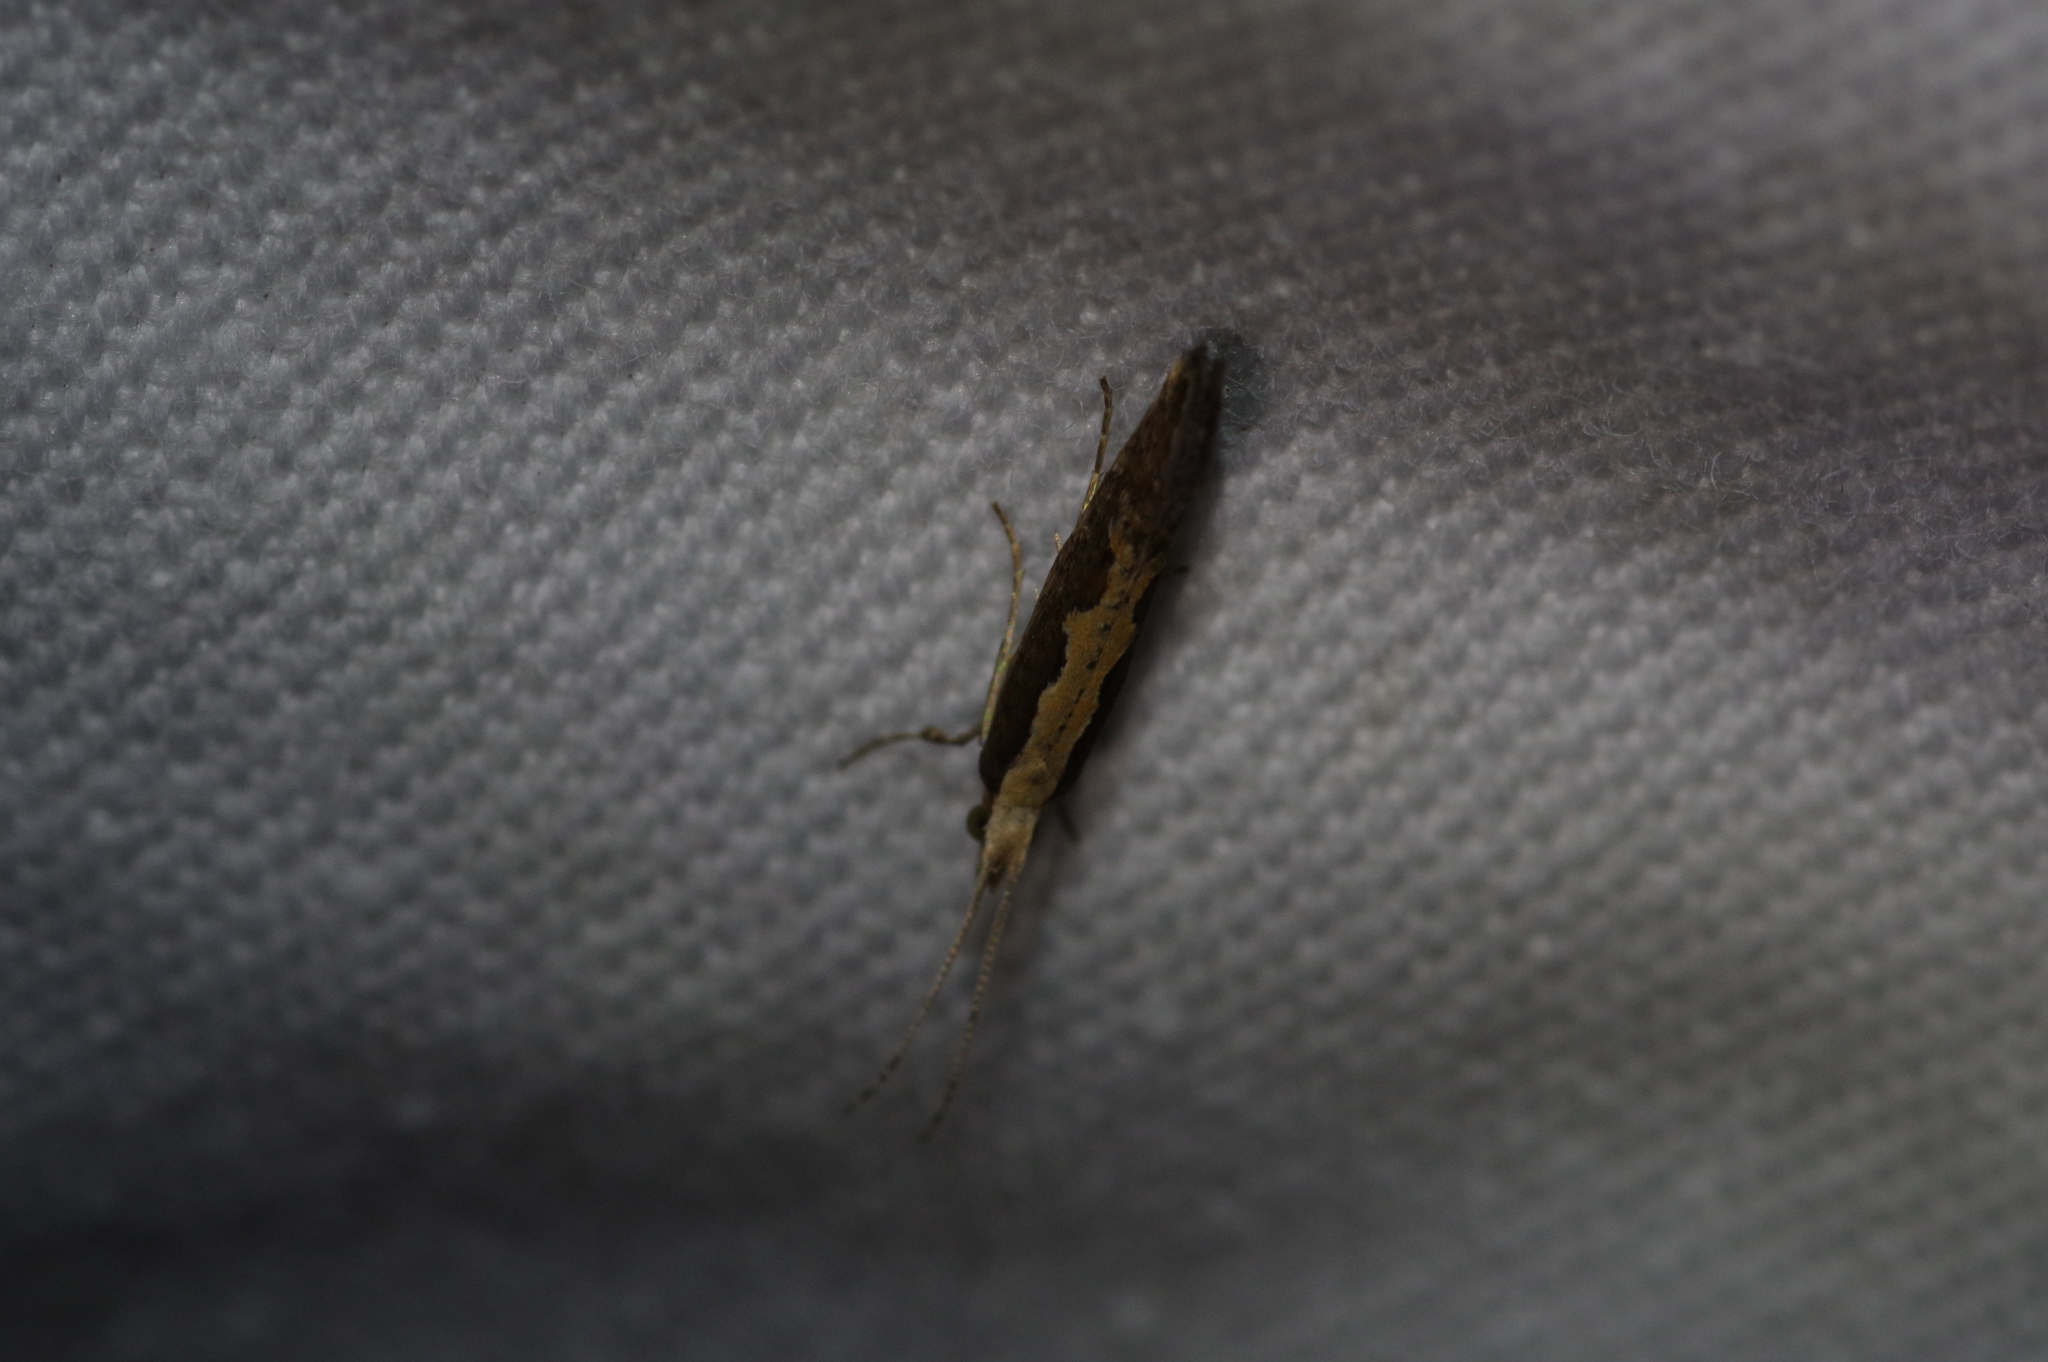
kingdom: Animalia
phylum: Arthropoda
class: Insecta
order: Lepidoptera
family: Plutellidae
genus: Plutella
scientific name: Plutella xylostella
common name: Diamond-back moth
